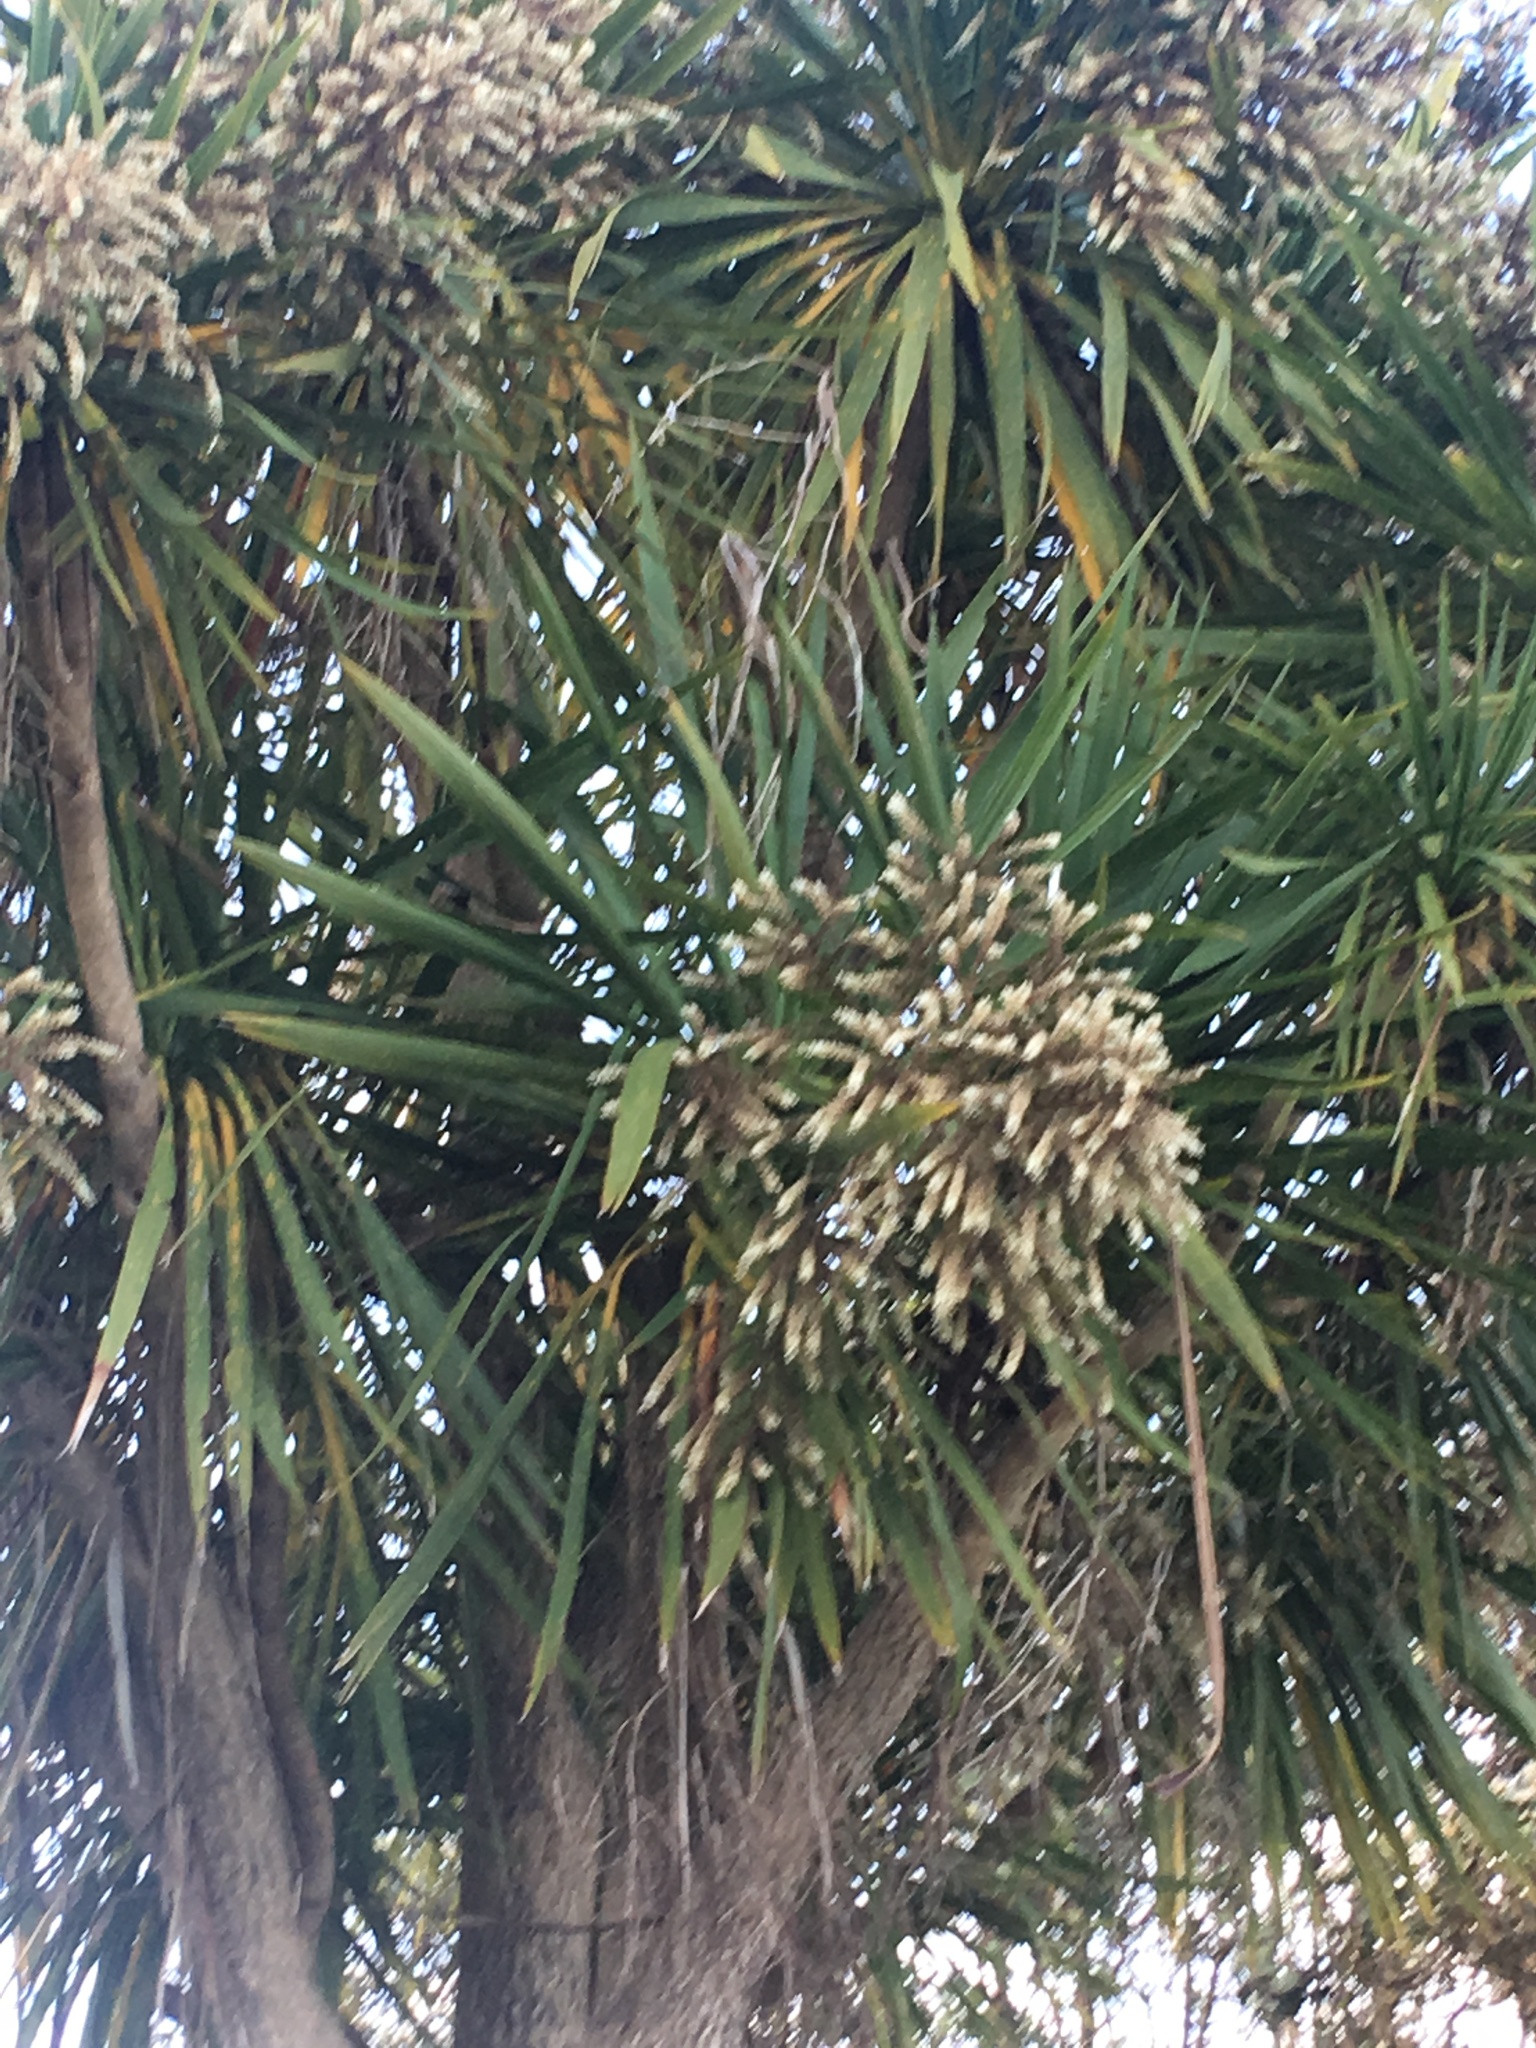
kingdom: Plantae
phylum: Tracheophyta
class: Liliopsida
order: Asparagales
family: Asparagaceae
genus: Cordyline
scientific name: Cordyline australis
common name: Cabbage-palm
